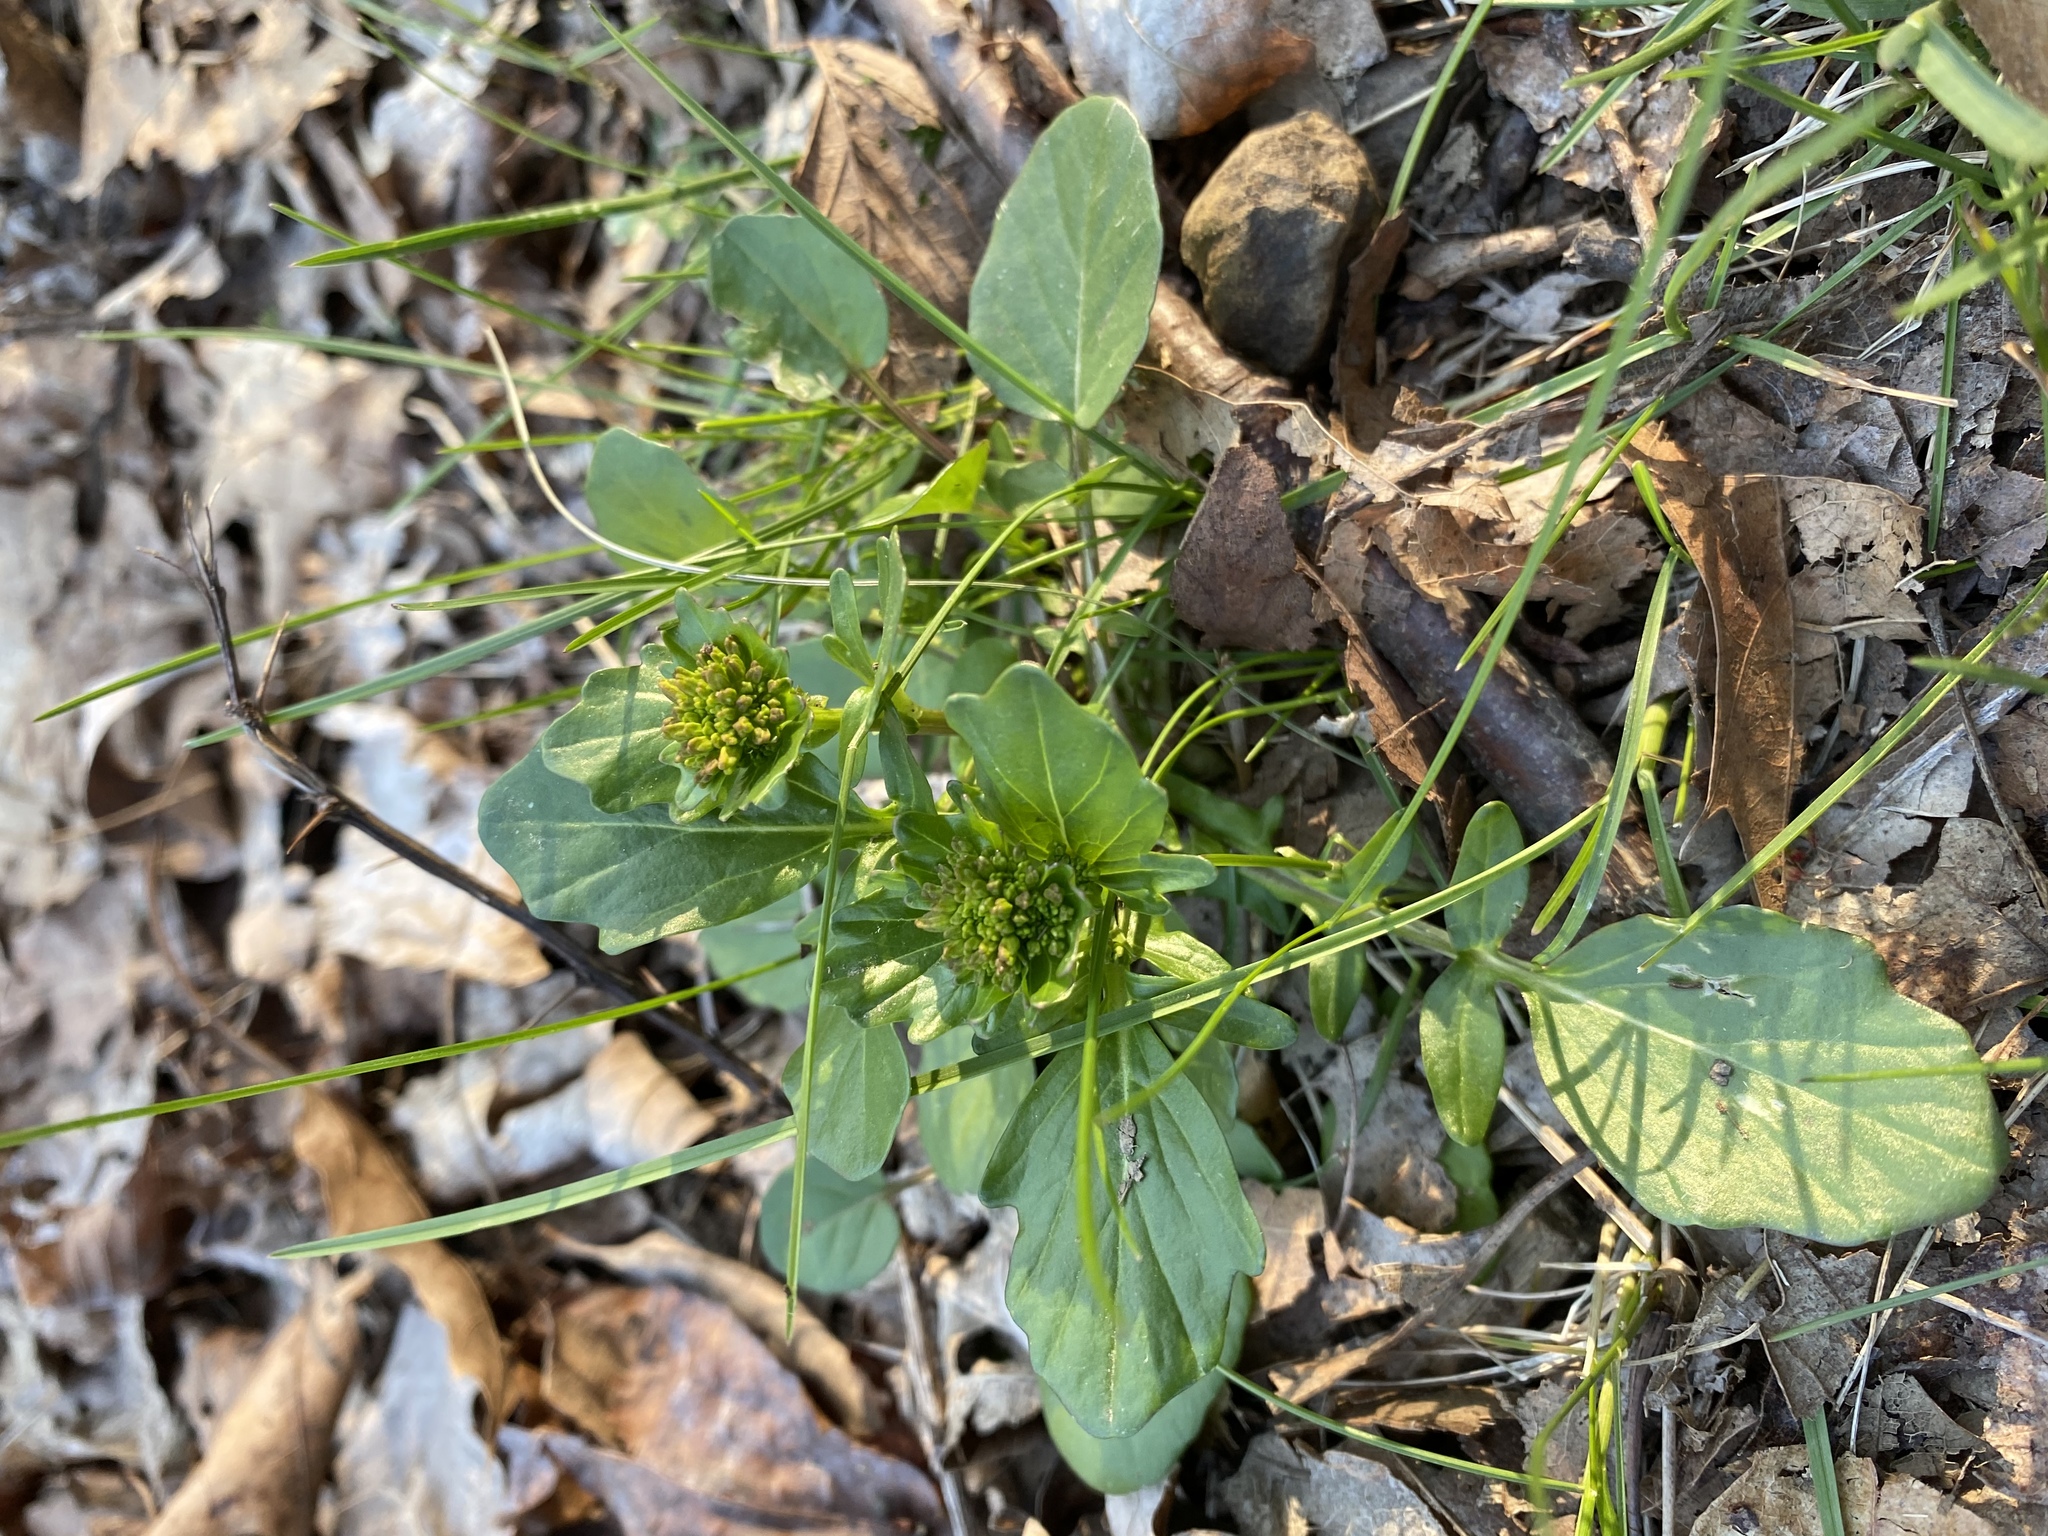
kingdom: Plantae
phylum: Tracheophyta
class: Magnoliopsida
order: Brassicales
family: Brassicaceae
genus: Barbarea
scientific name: Barbarea vulgaris
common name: Cressy-greens
